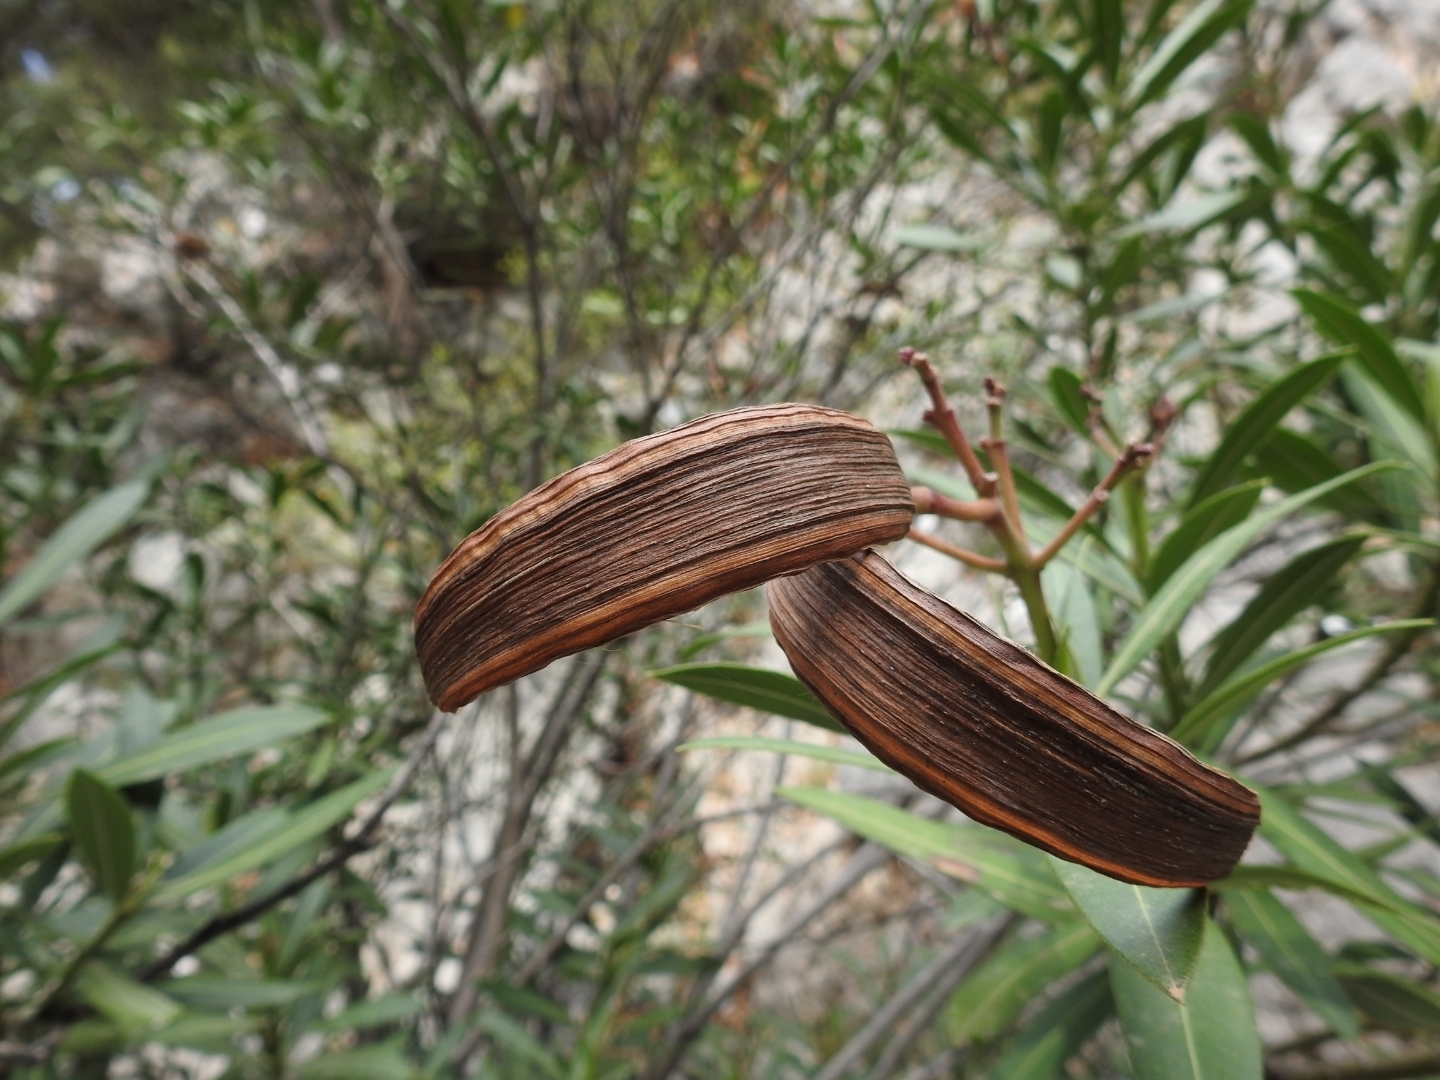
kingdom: Plantae
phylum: Tracheophyta
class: Magnoliopsida
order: Gentianales
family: Apocynaceae
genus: Nerium
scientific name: Nerium oleander
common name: Oleander
